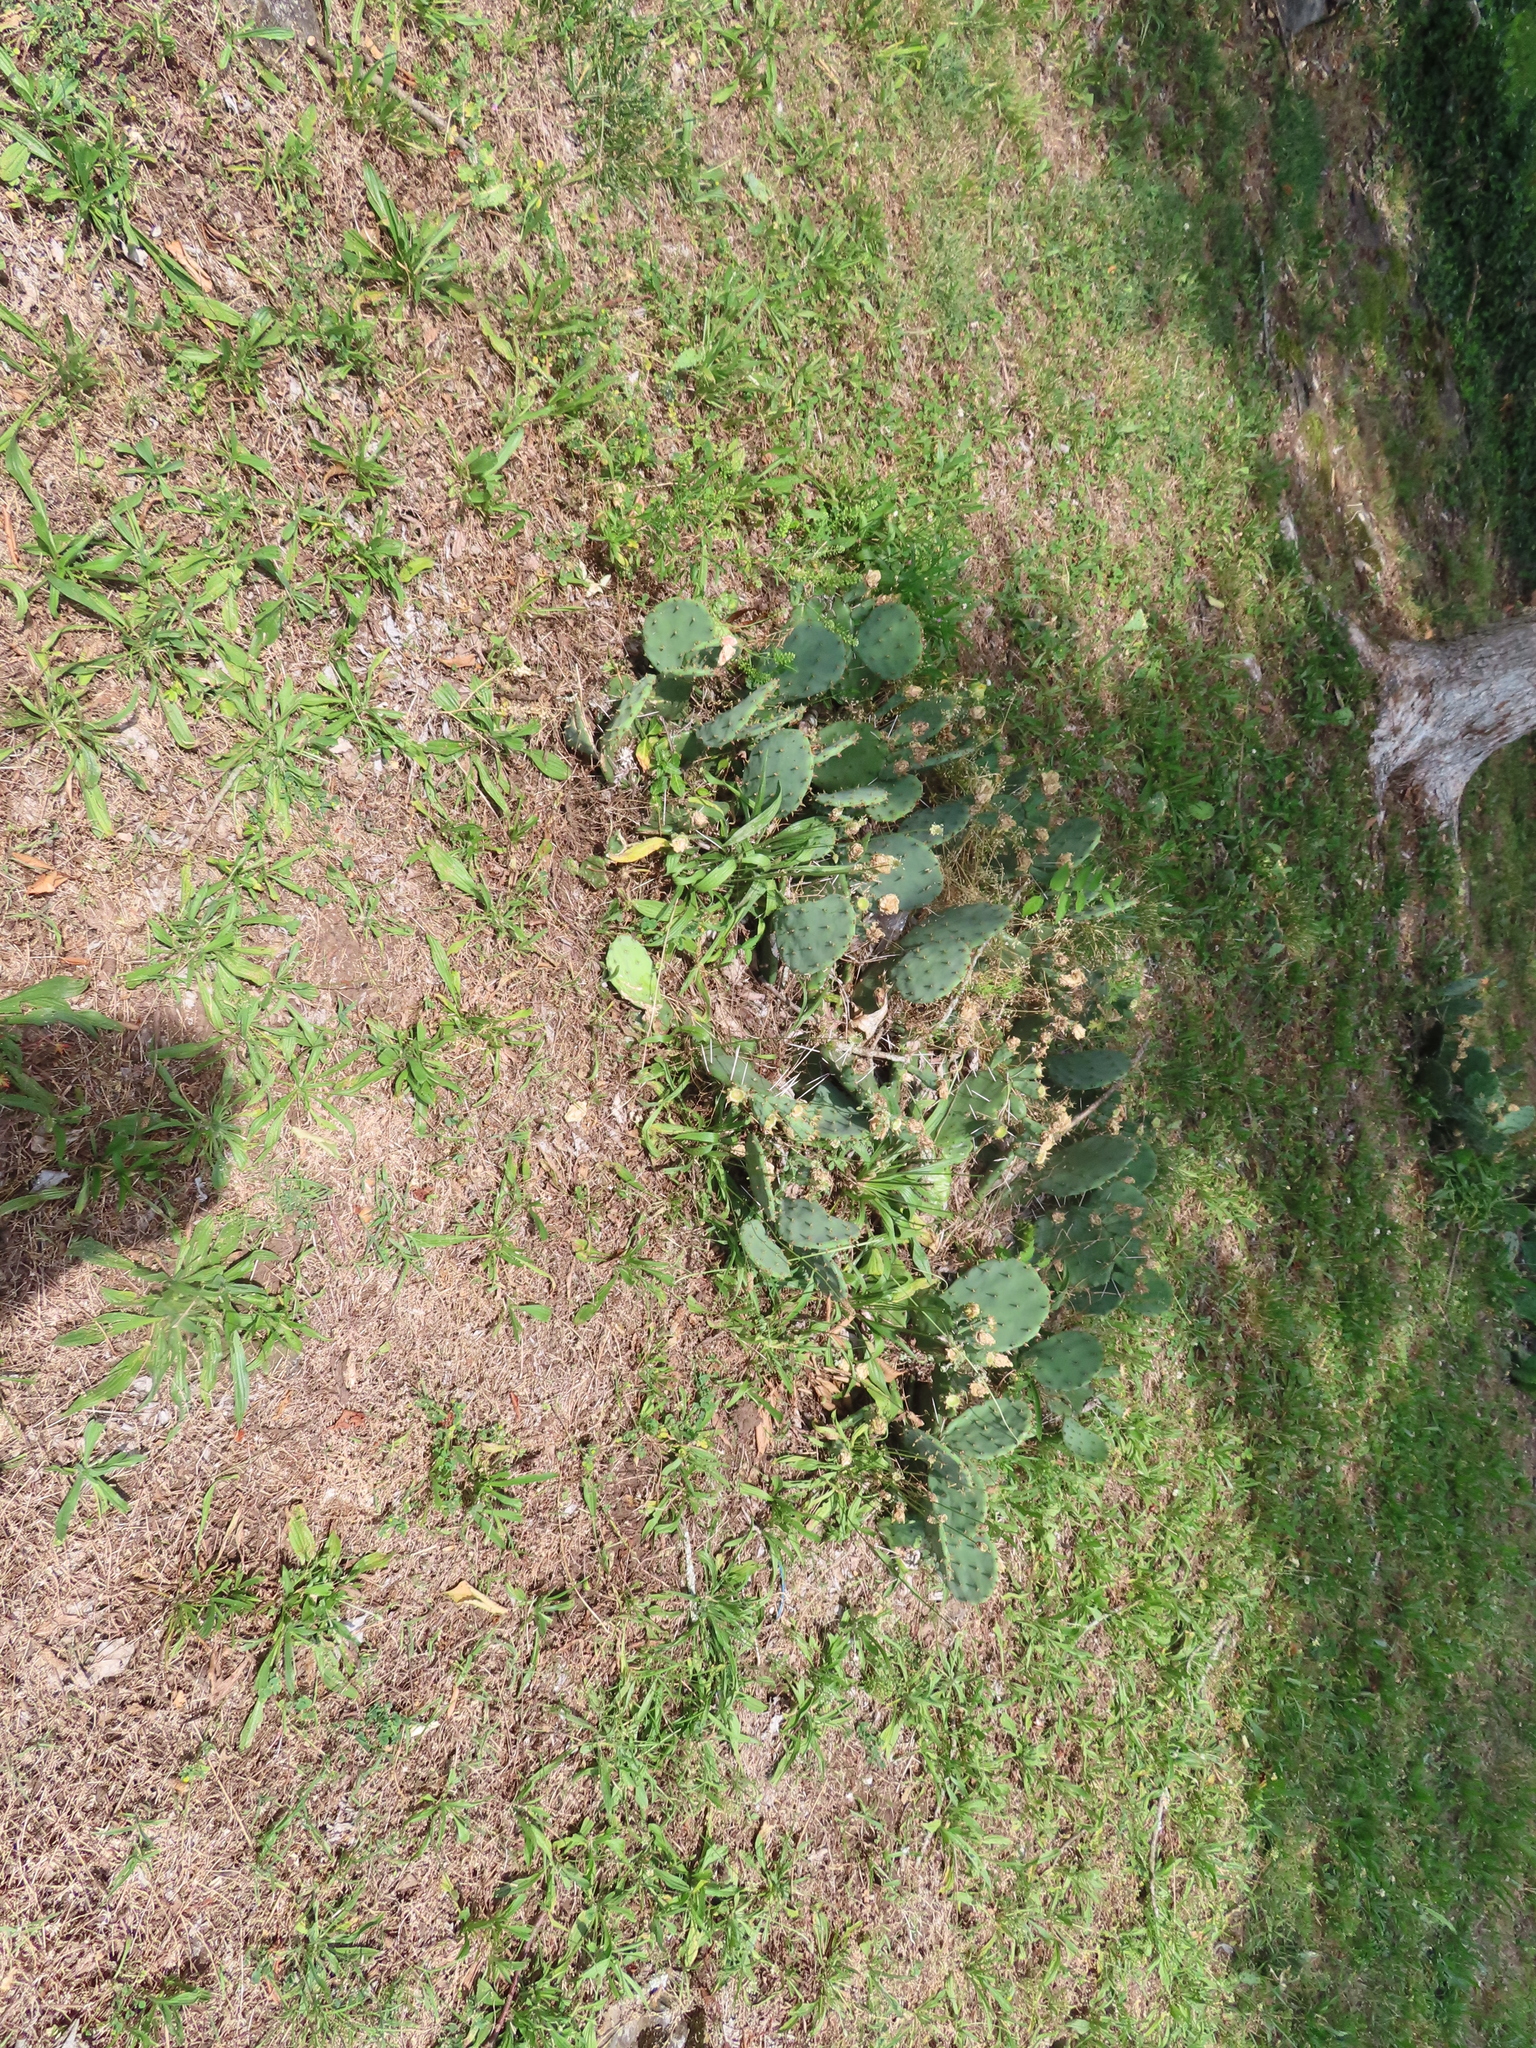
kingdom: Plantae
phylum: Tracheophyta
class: Magnoliopsida
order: Caryophyllales
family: Cactaceae
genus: Opuntia
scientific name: Opuntia humifusa
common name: Eastern prickly-pear
